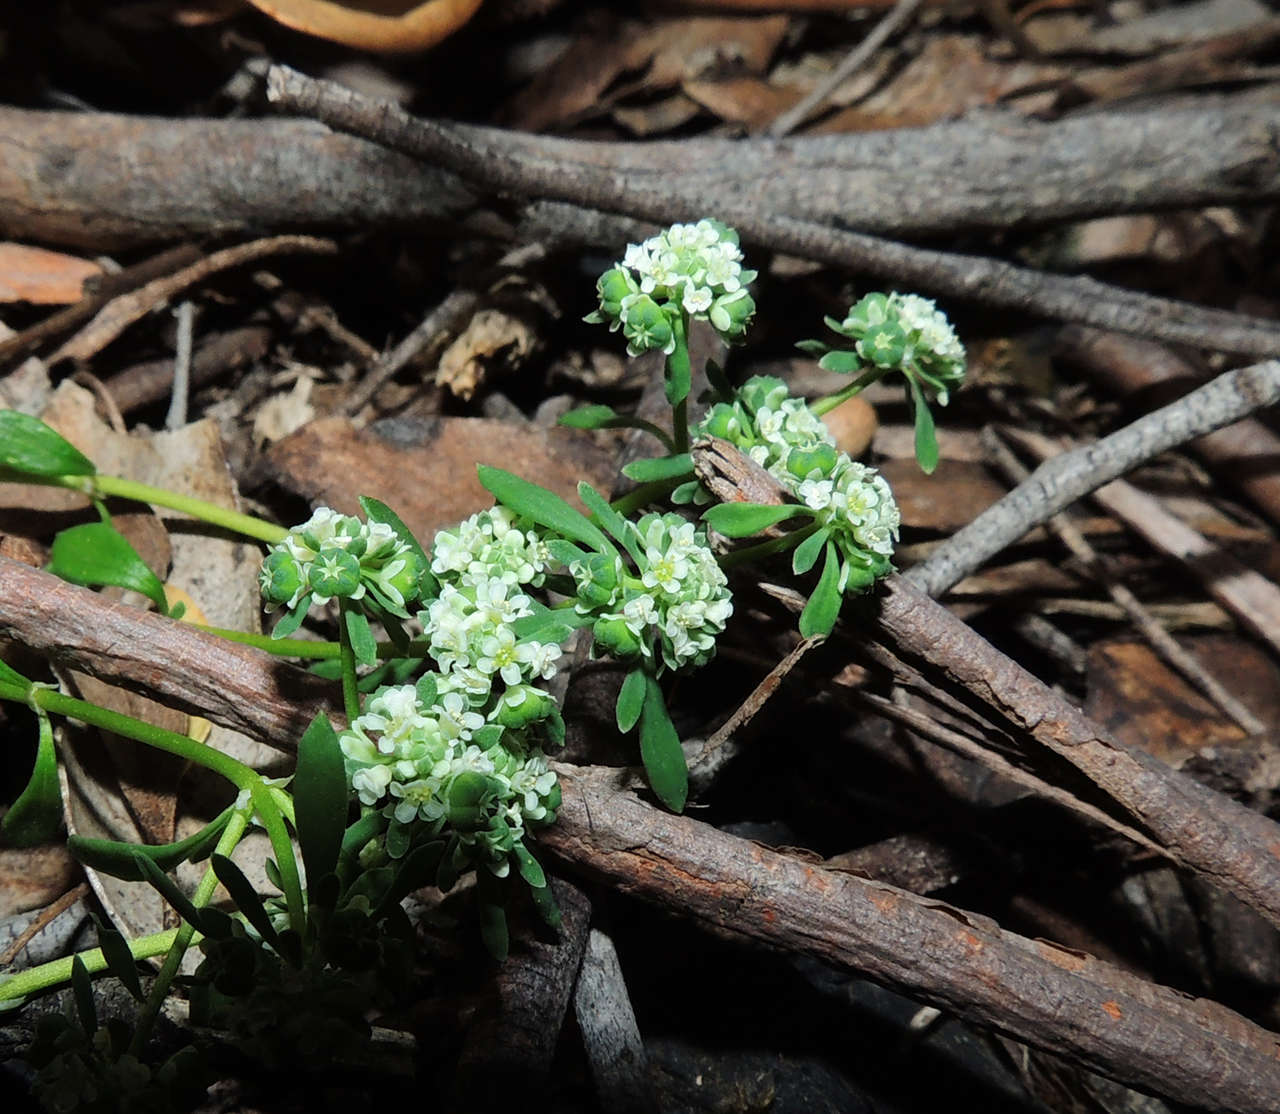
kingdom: Plantae
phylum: Tracheophyta
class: Magnoliopsida
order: Malpighiales
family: Phyllanthaceae
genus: Poranthera
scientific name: Poranthera microphylla
